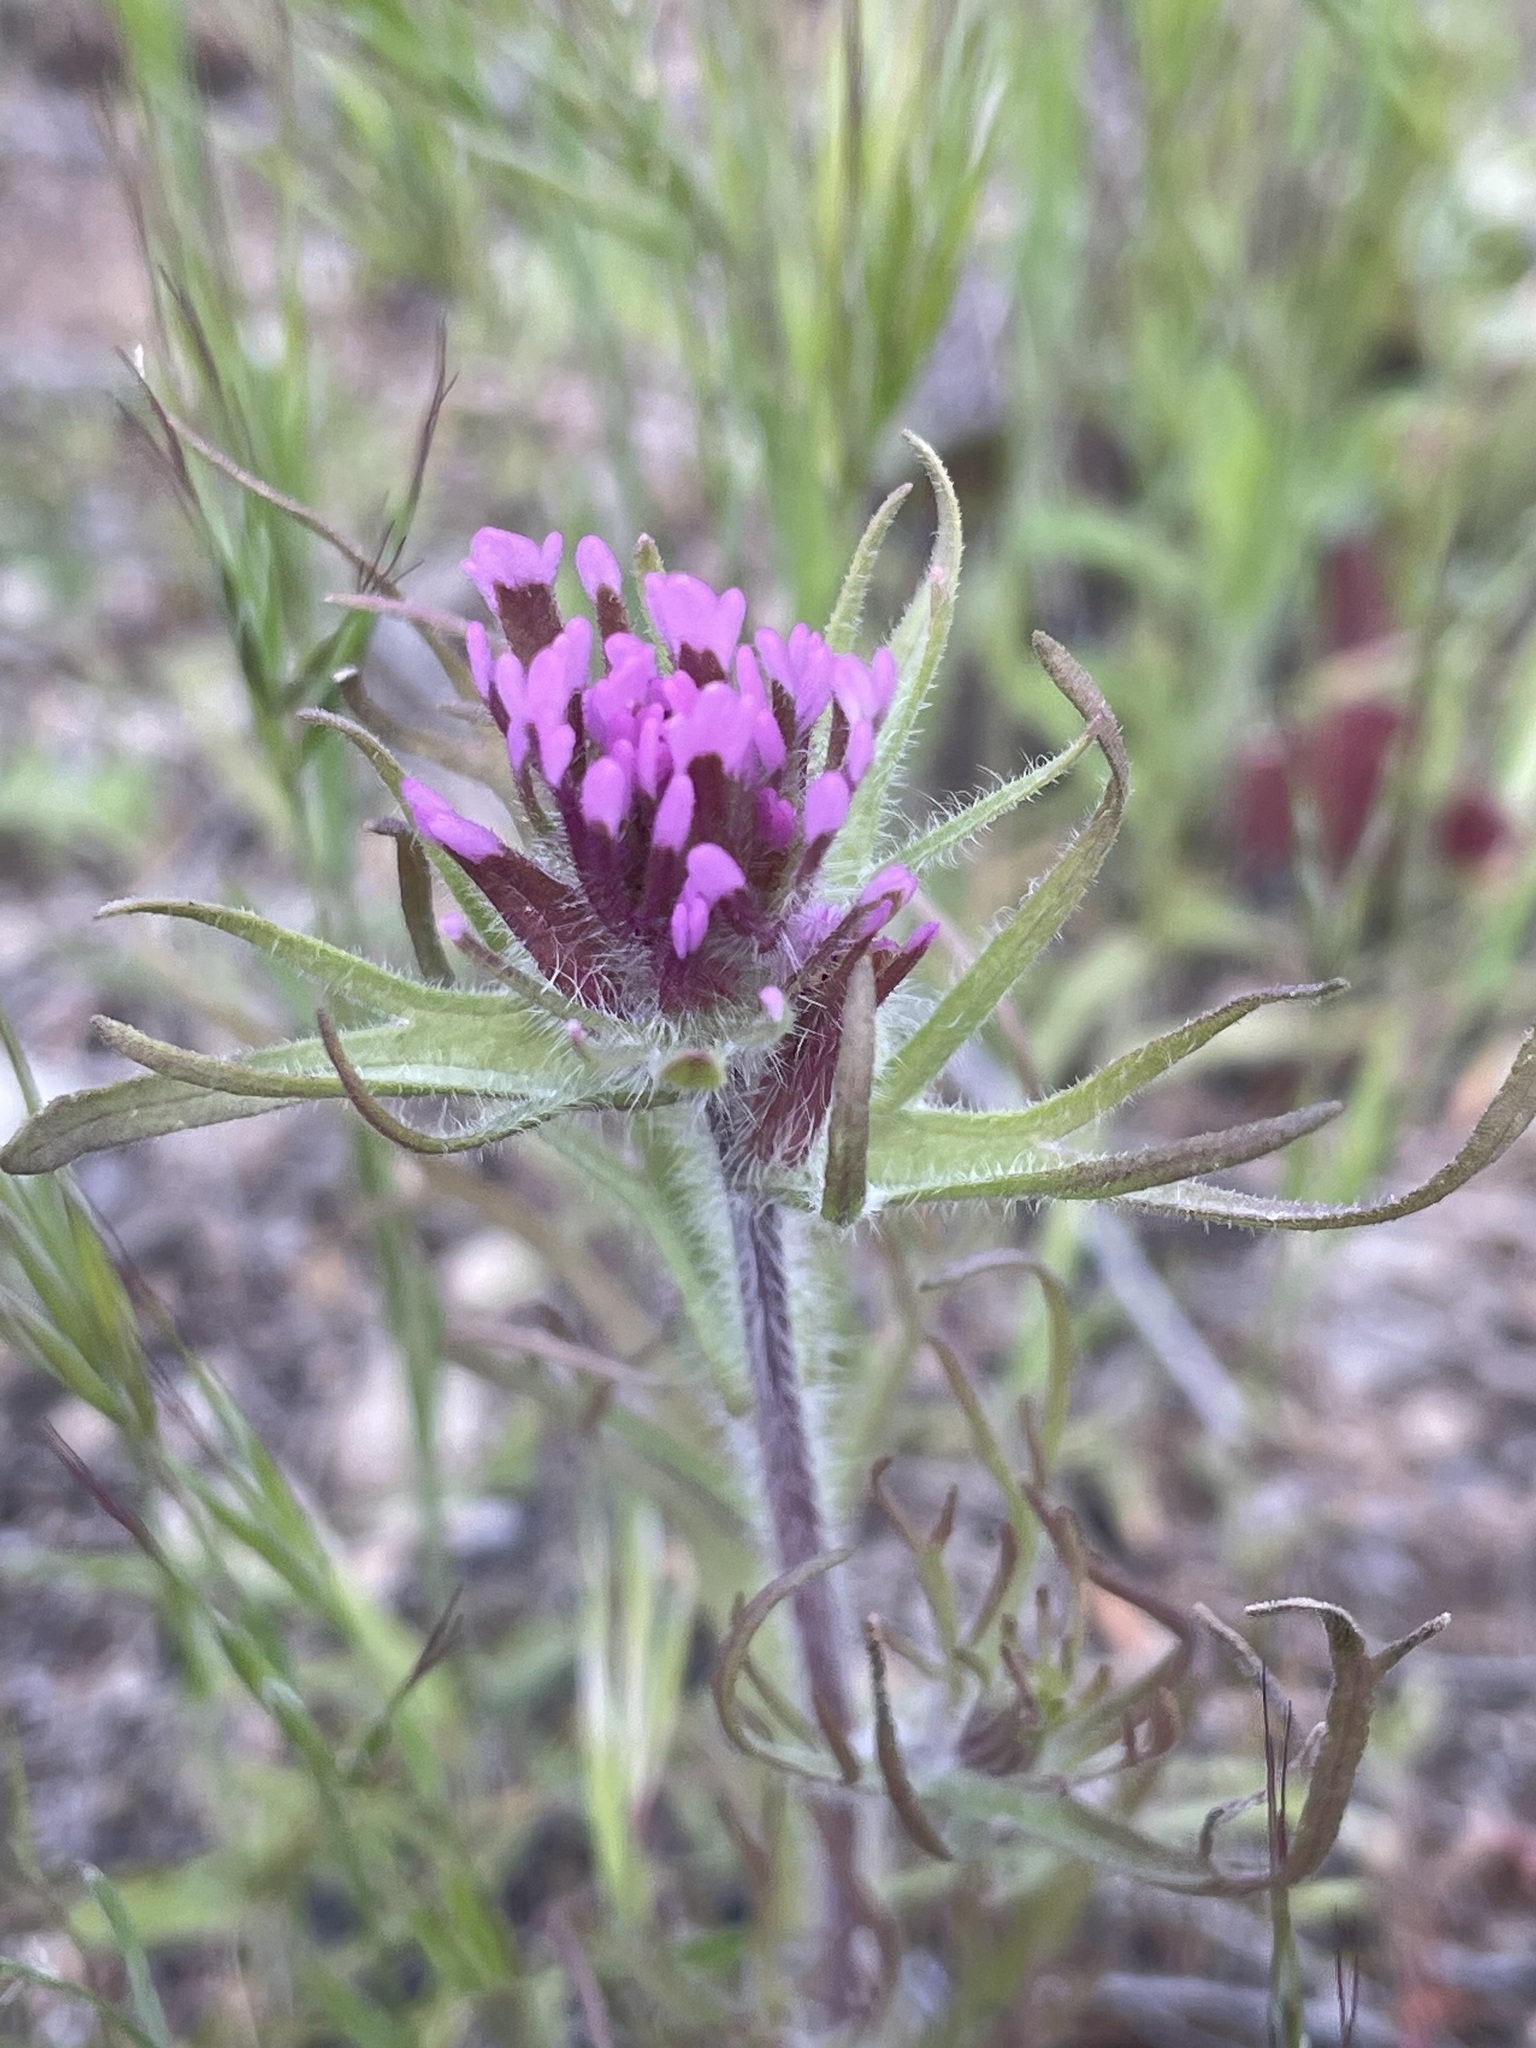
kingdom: Plantae
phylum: Tracheophyta
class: Magnoliopsida
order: Lamiales
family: Orobanchaceae
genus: Castilleja
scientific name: Castilleja exserta
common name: Purple owl-clover
